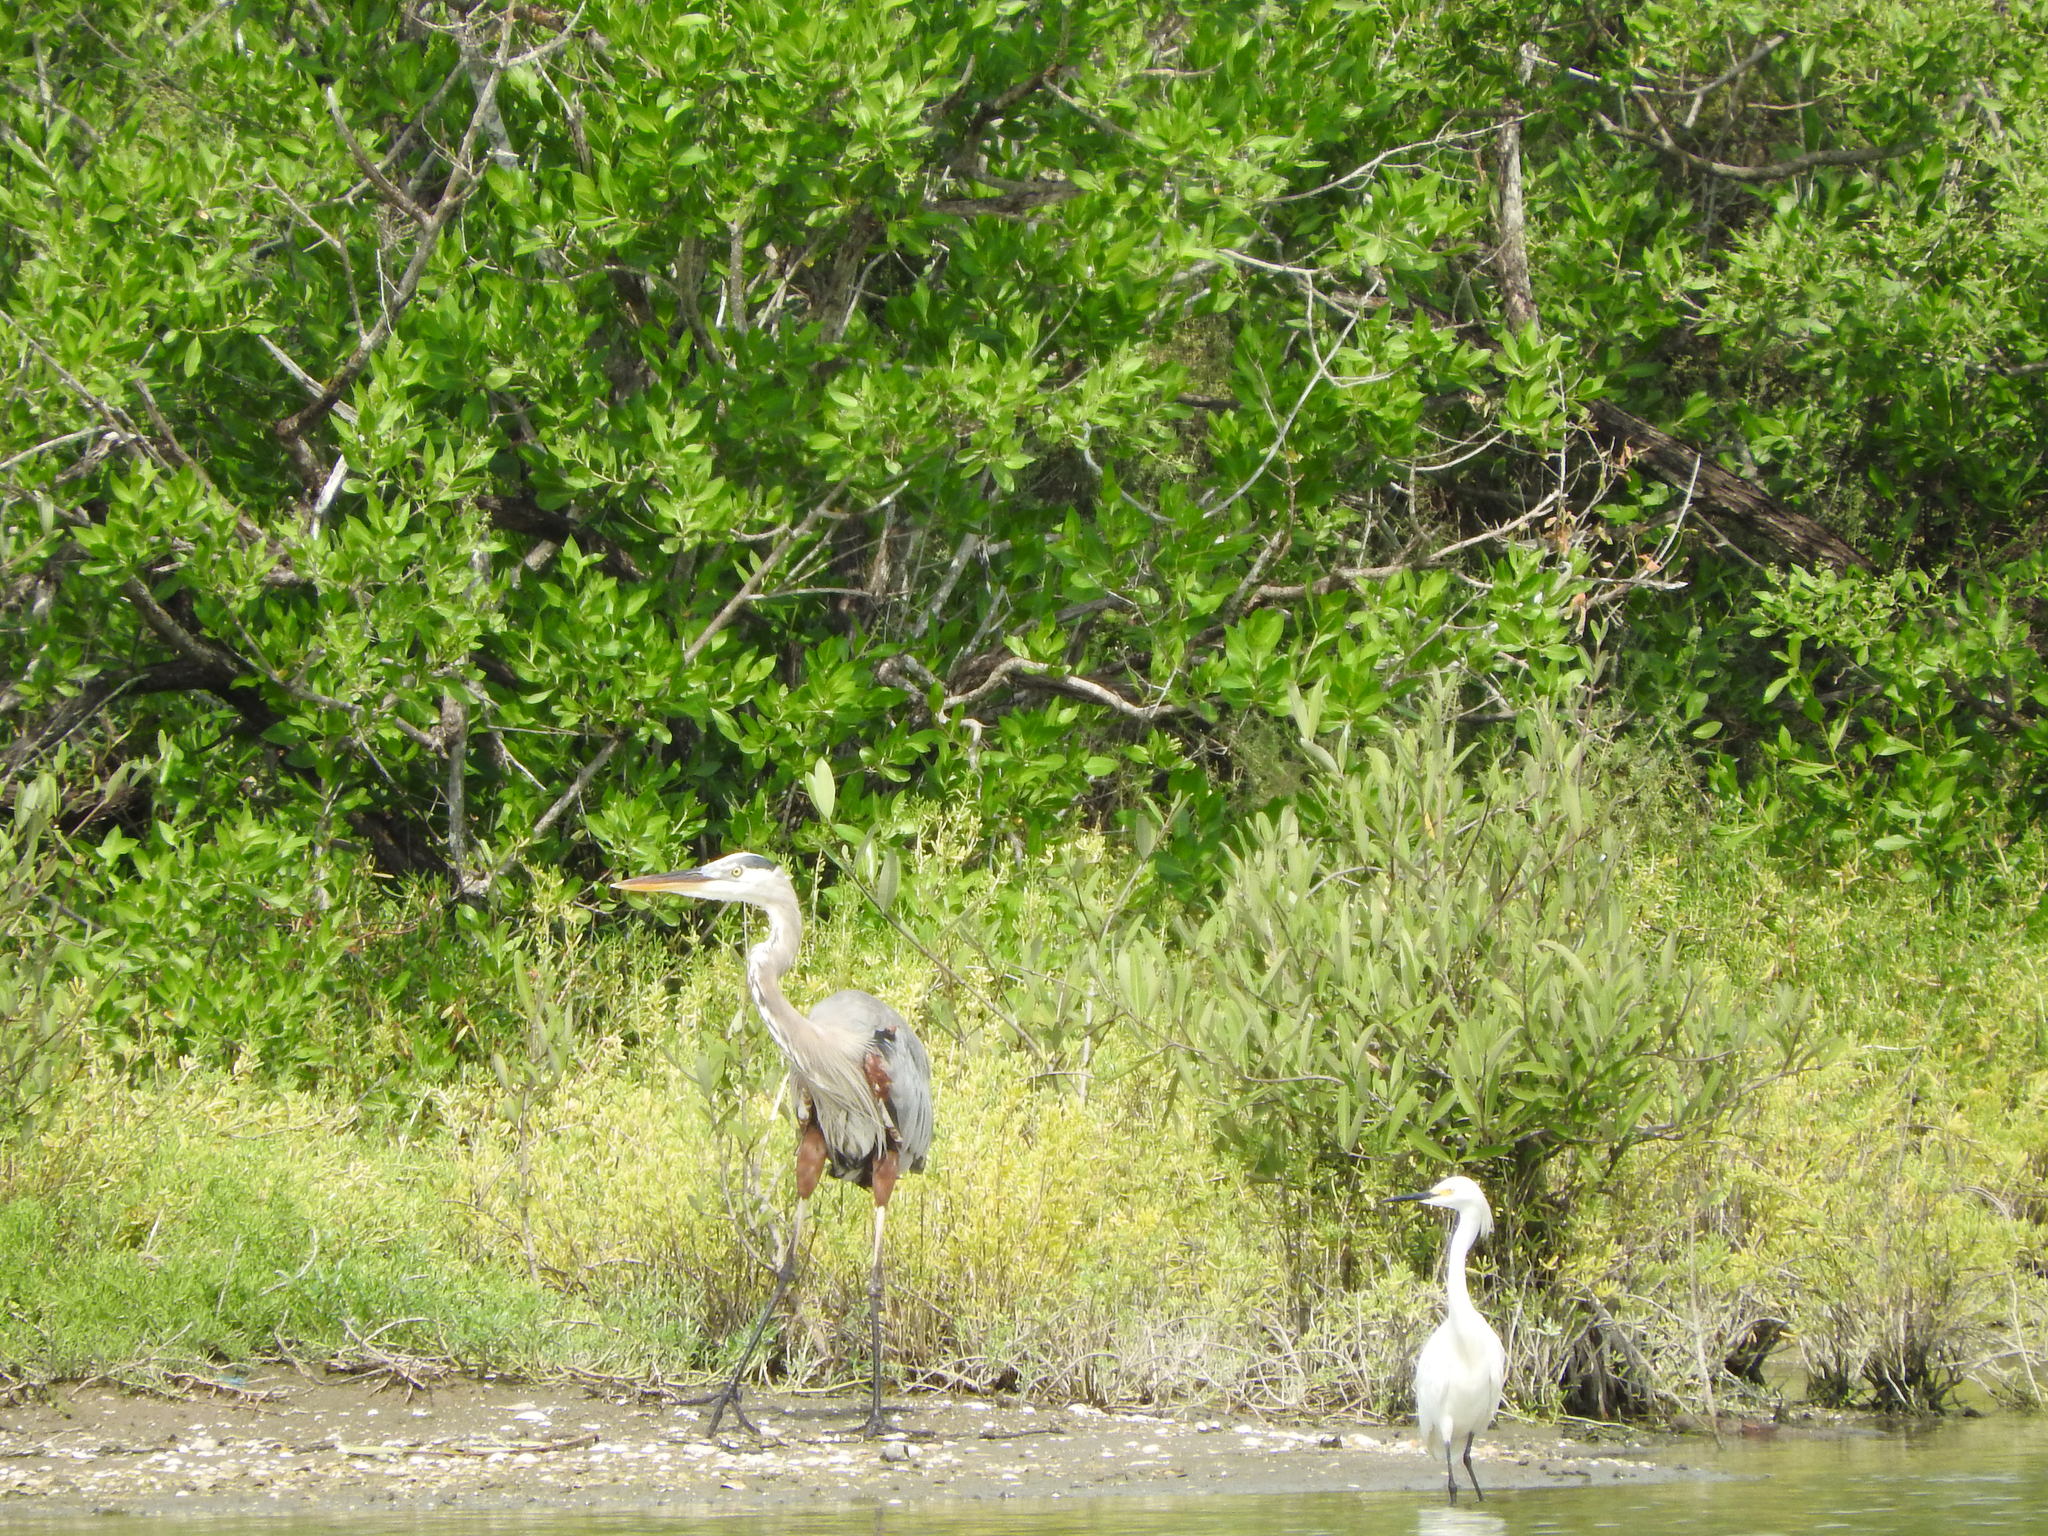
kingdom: Animalia
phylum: Chordata
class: Aves
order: Pelecaniformes
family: Ardeidae
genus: Ardea
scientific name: Ardea herodias
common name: Great blue heron
